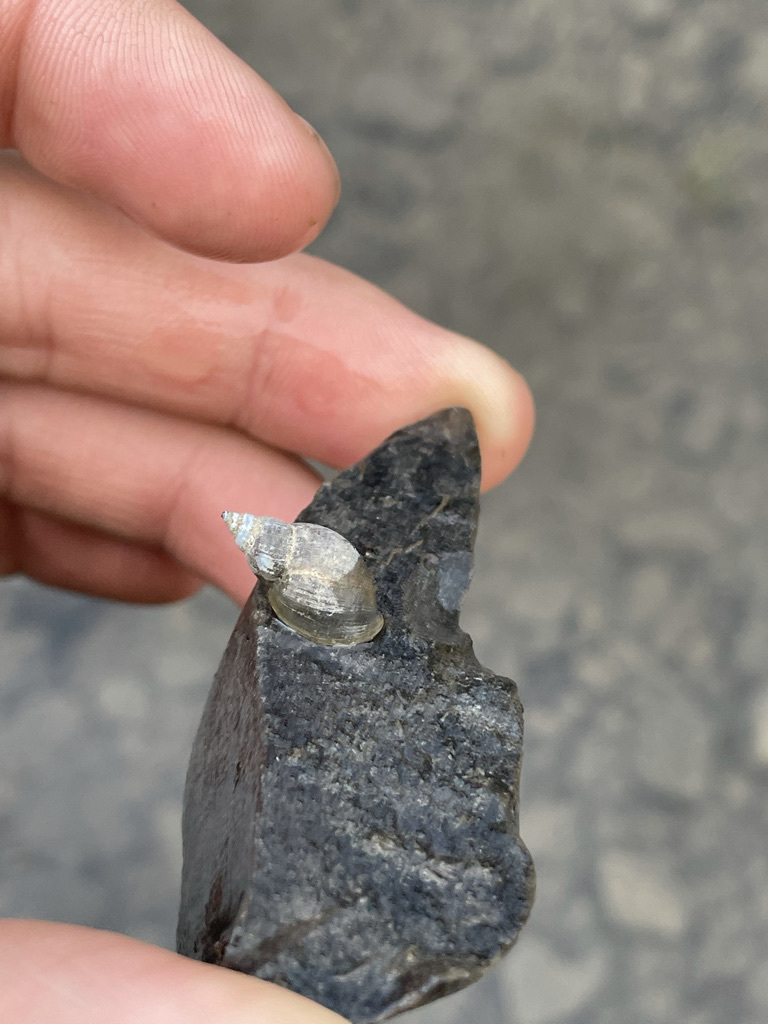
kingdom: Animalia
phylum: Mollusca
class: Gastropoda
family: Lymnaeidae
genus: Lymnaea
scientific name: Lymnaea stagnalis
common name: Great pond snail
